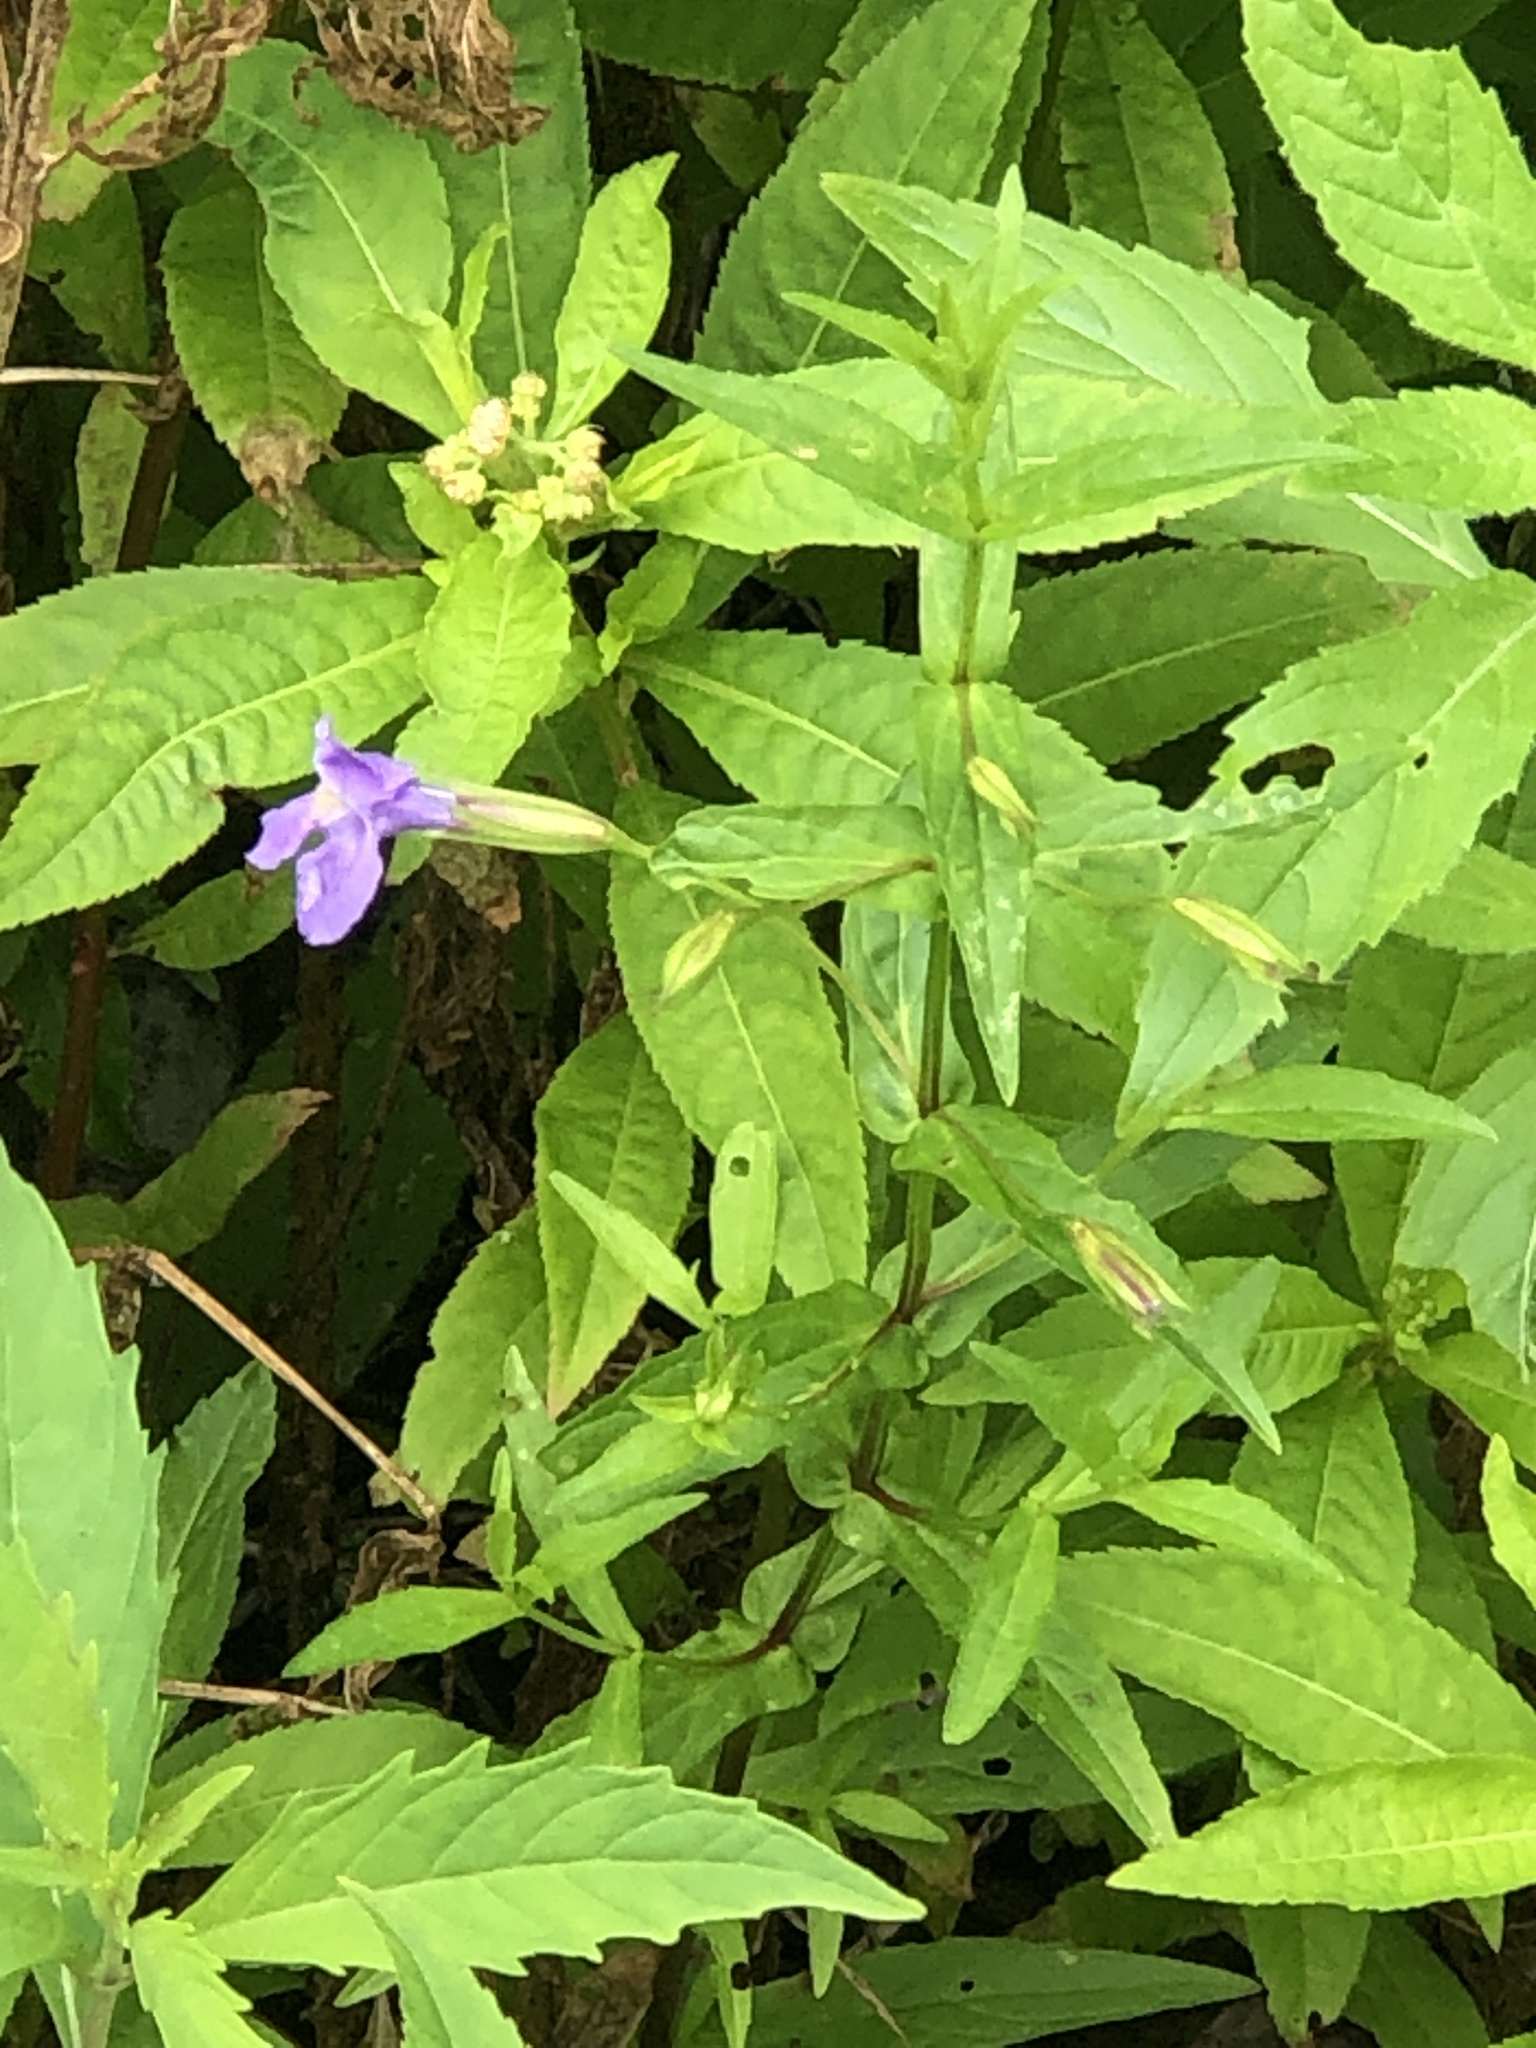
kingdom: Plantae
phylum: Tracheophyta
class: Magnoliopsida
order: Lamiales
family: Phrymaceae
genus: Mimulus
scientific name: Mimulus ringens
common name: Allegheny monkeyflower
